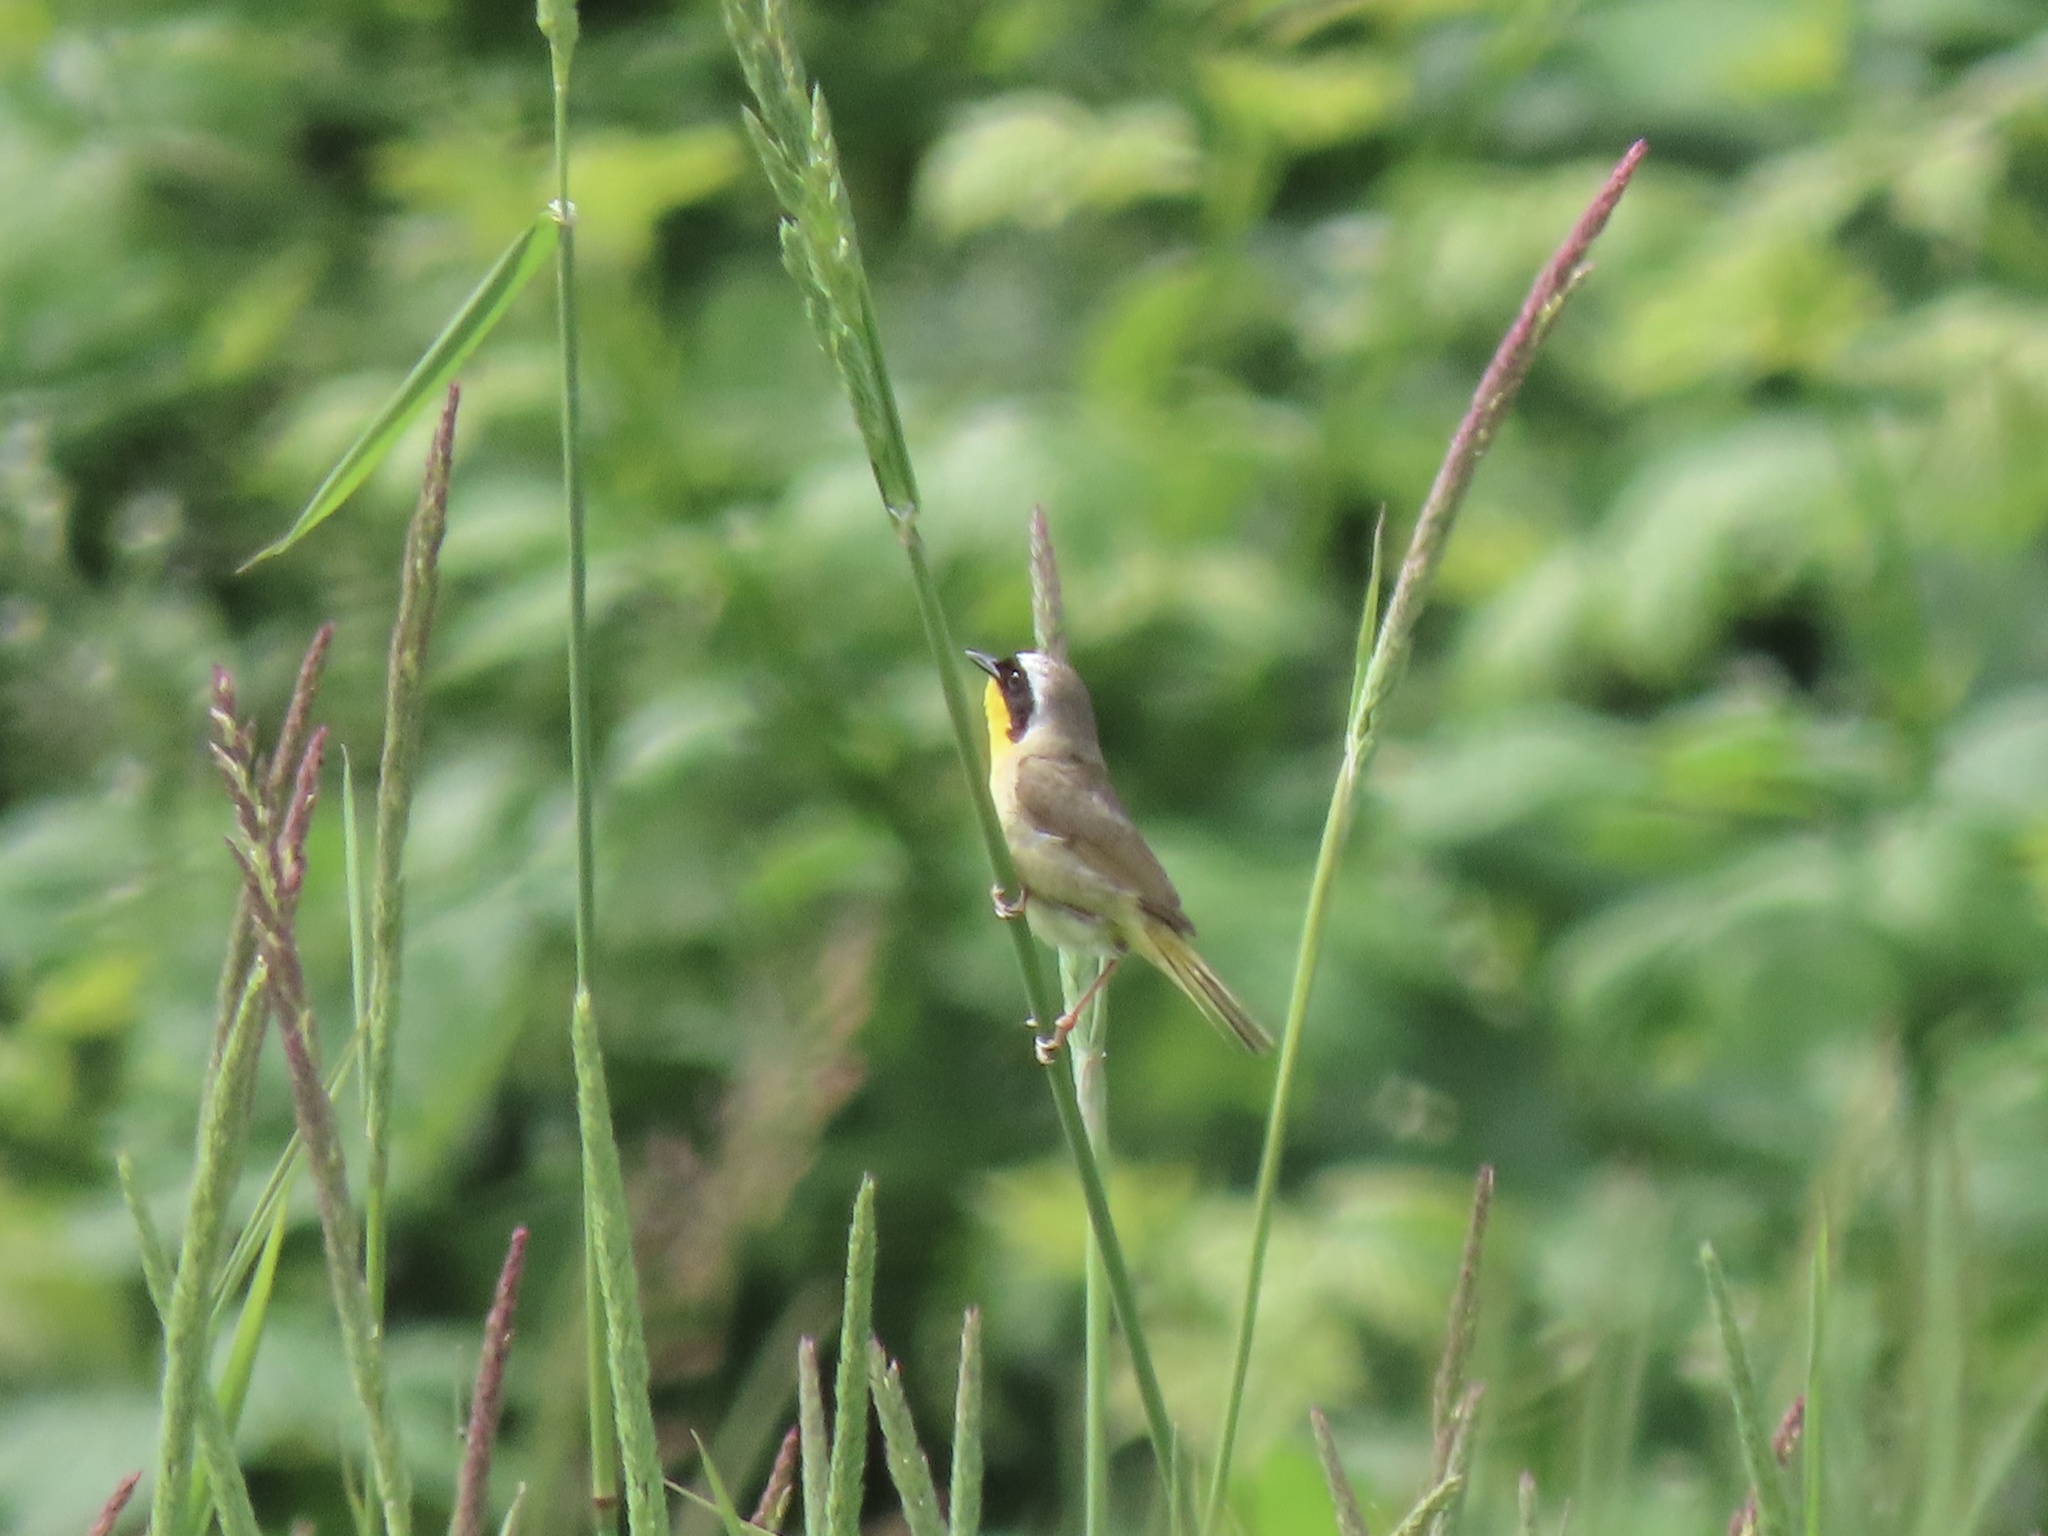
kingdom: Animalia
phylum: Chordata
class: Aves
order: Passeriformes
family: Parulidae
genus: Geothlypis
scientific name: Geothlypis trichas
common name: Common yellowthroat
